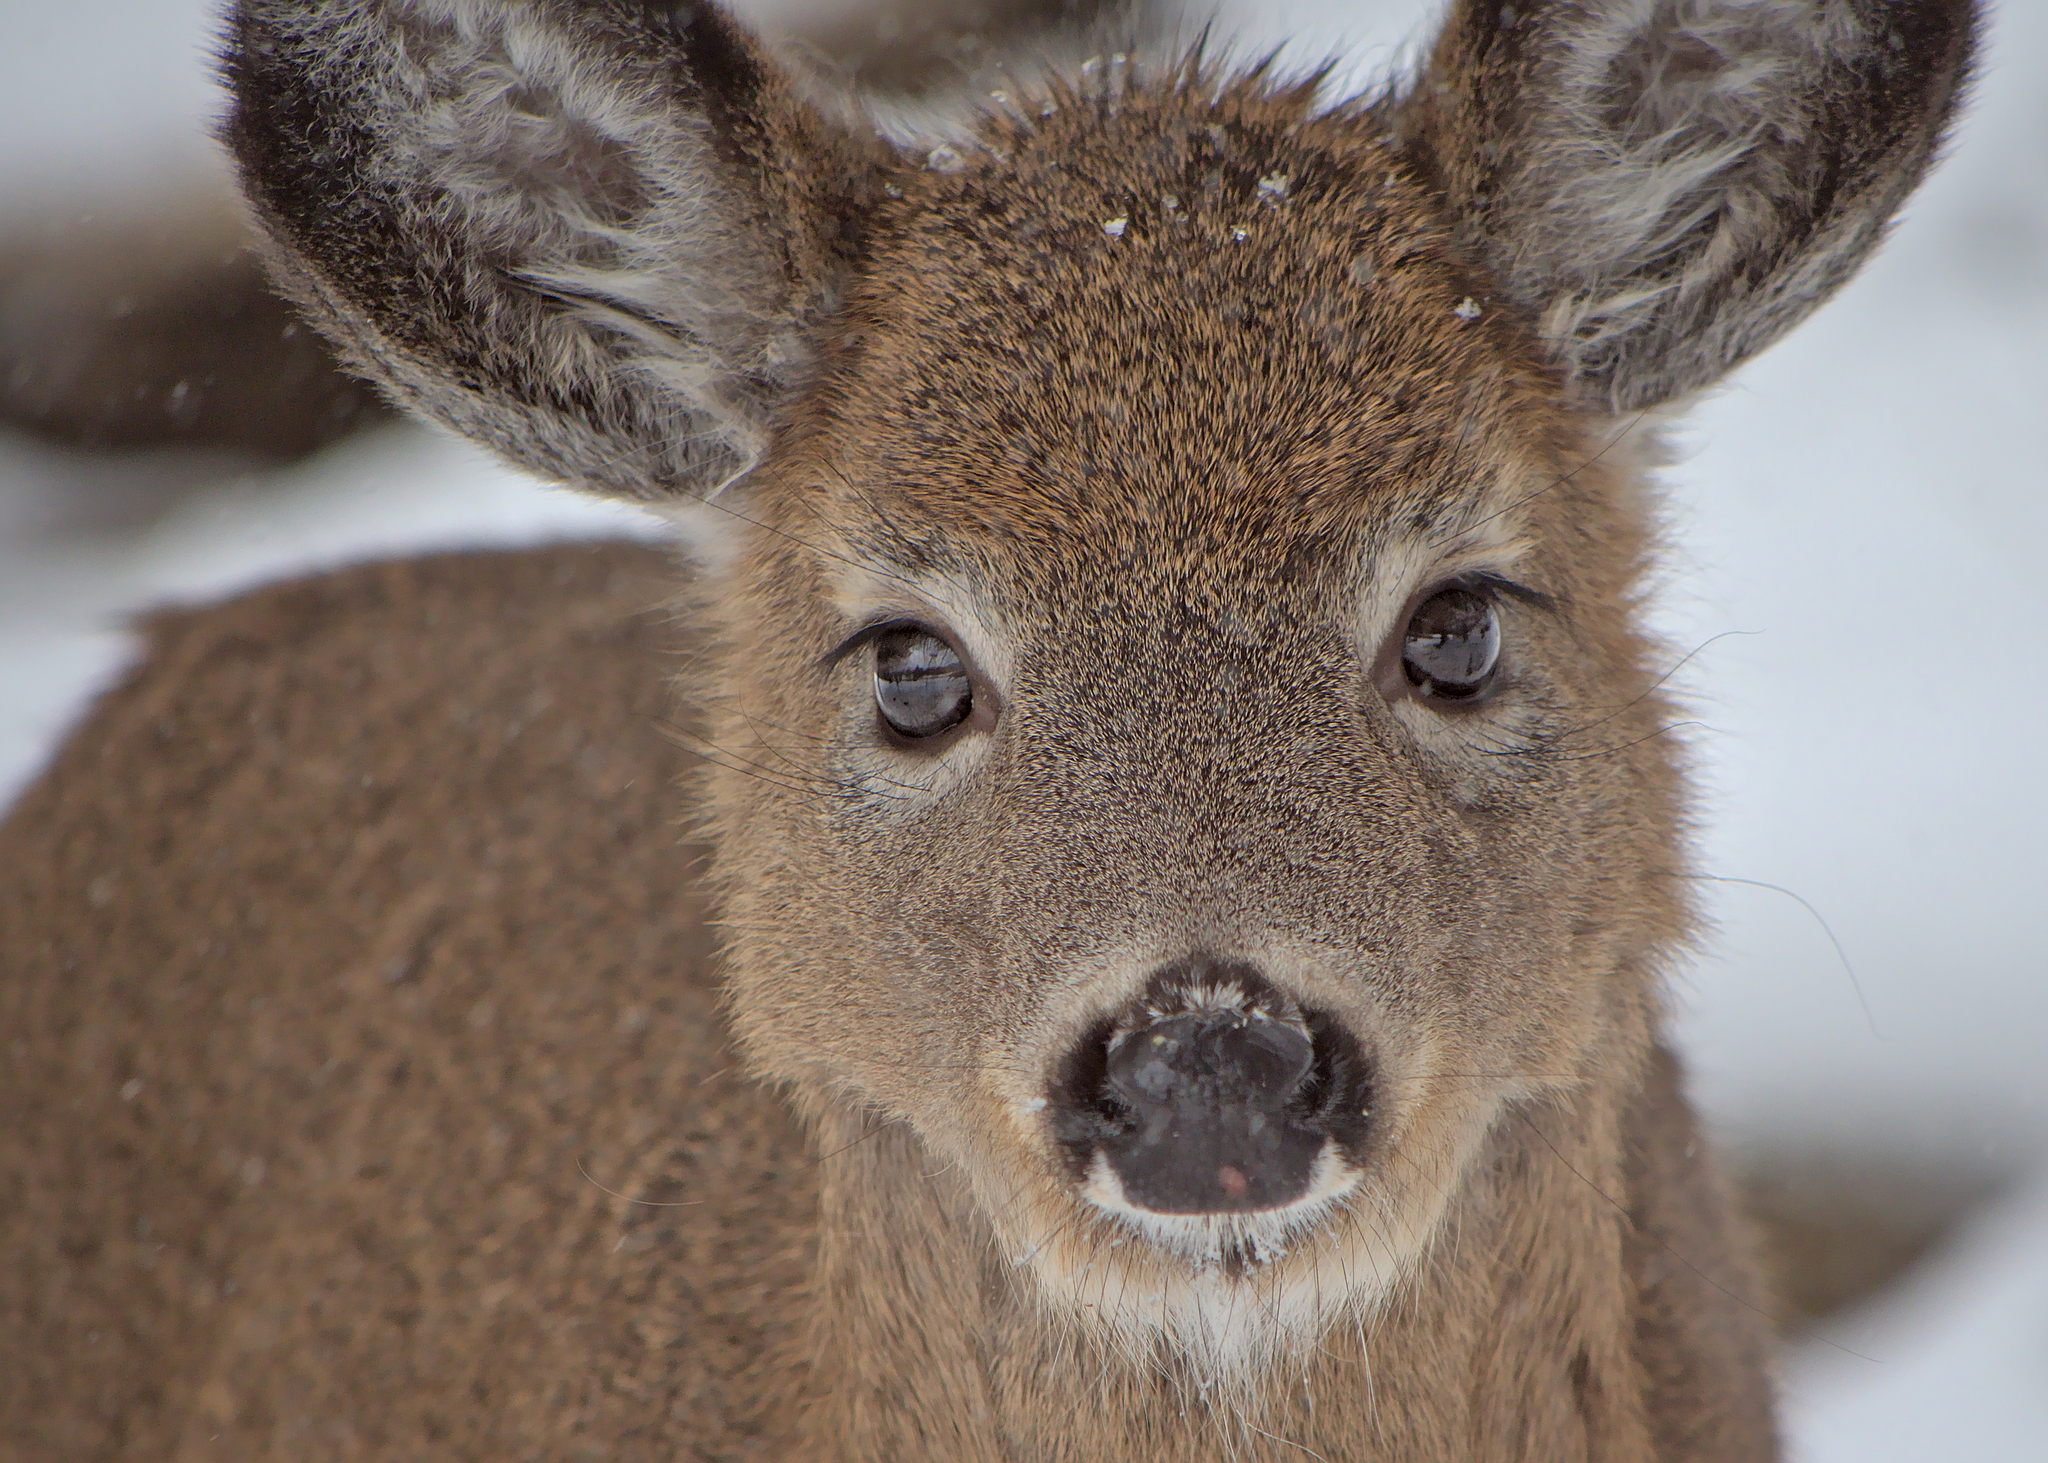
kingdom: Animalia
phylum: Chordata
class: Mammalia
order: Artiodactyla
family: Cervidae
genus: Odocoileus
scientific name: Odocoileus virginianus
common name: White-tailed deer
